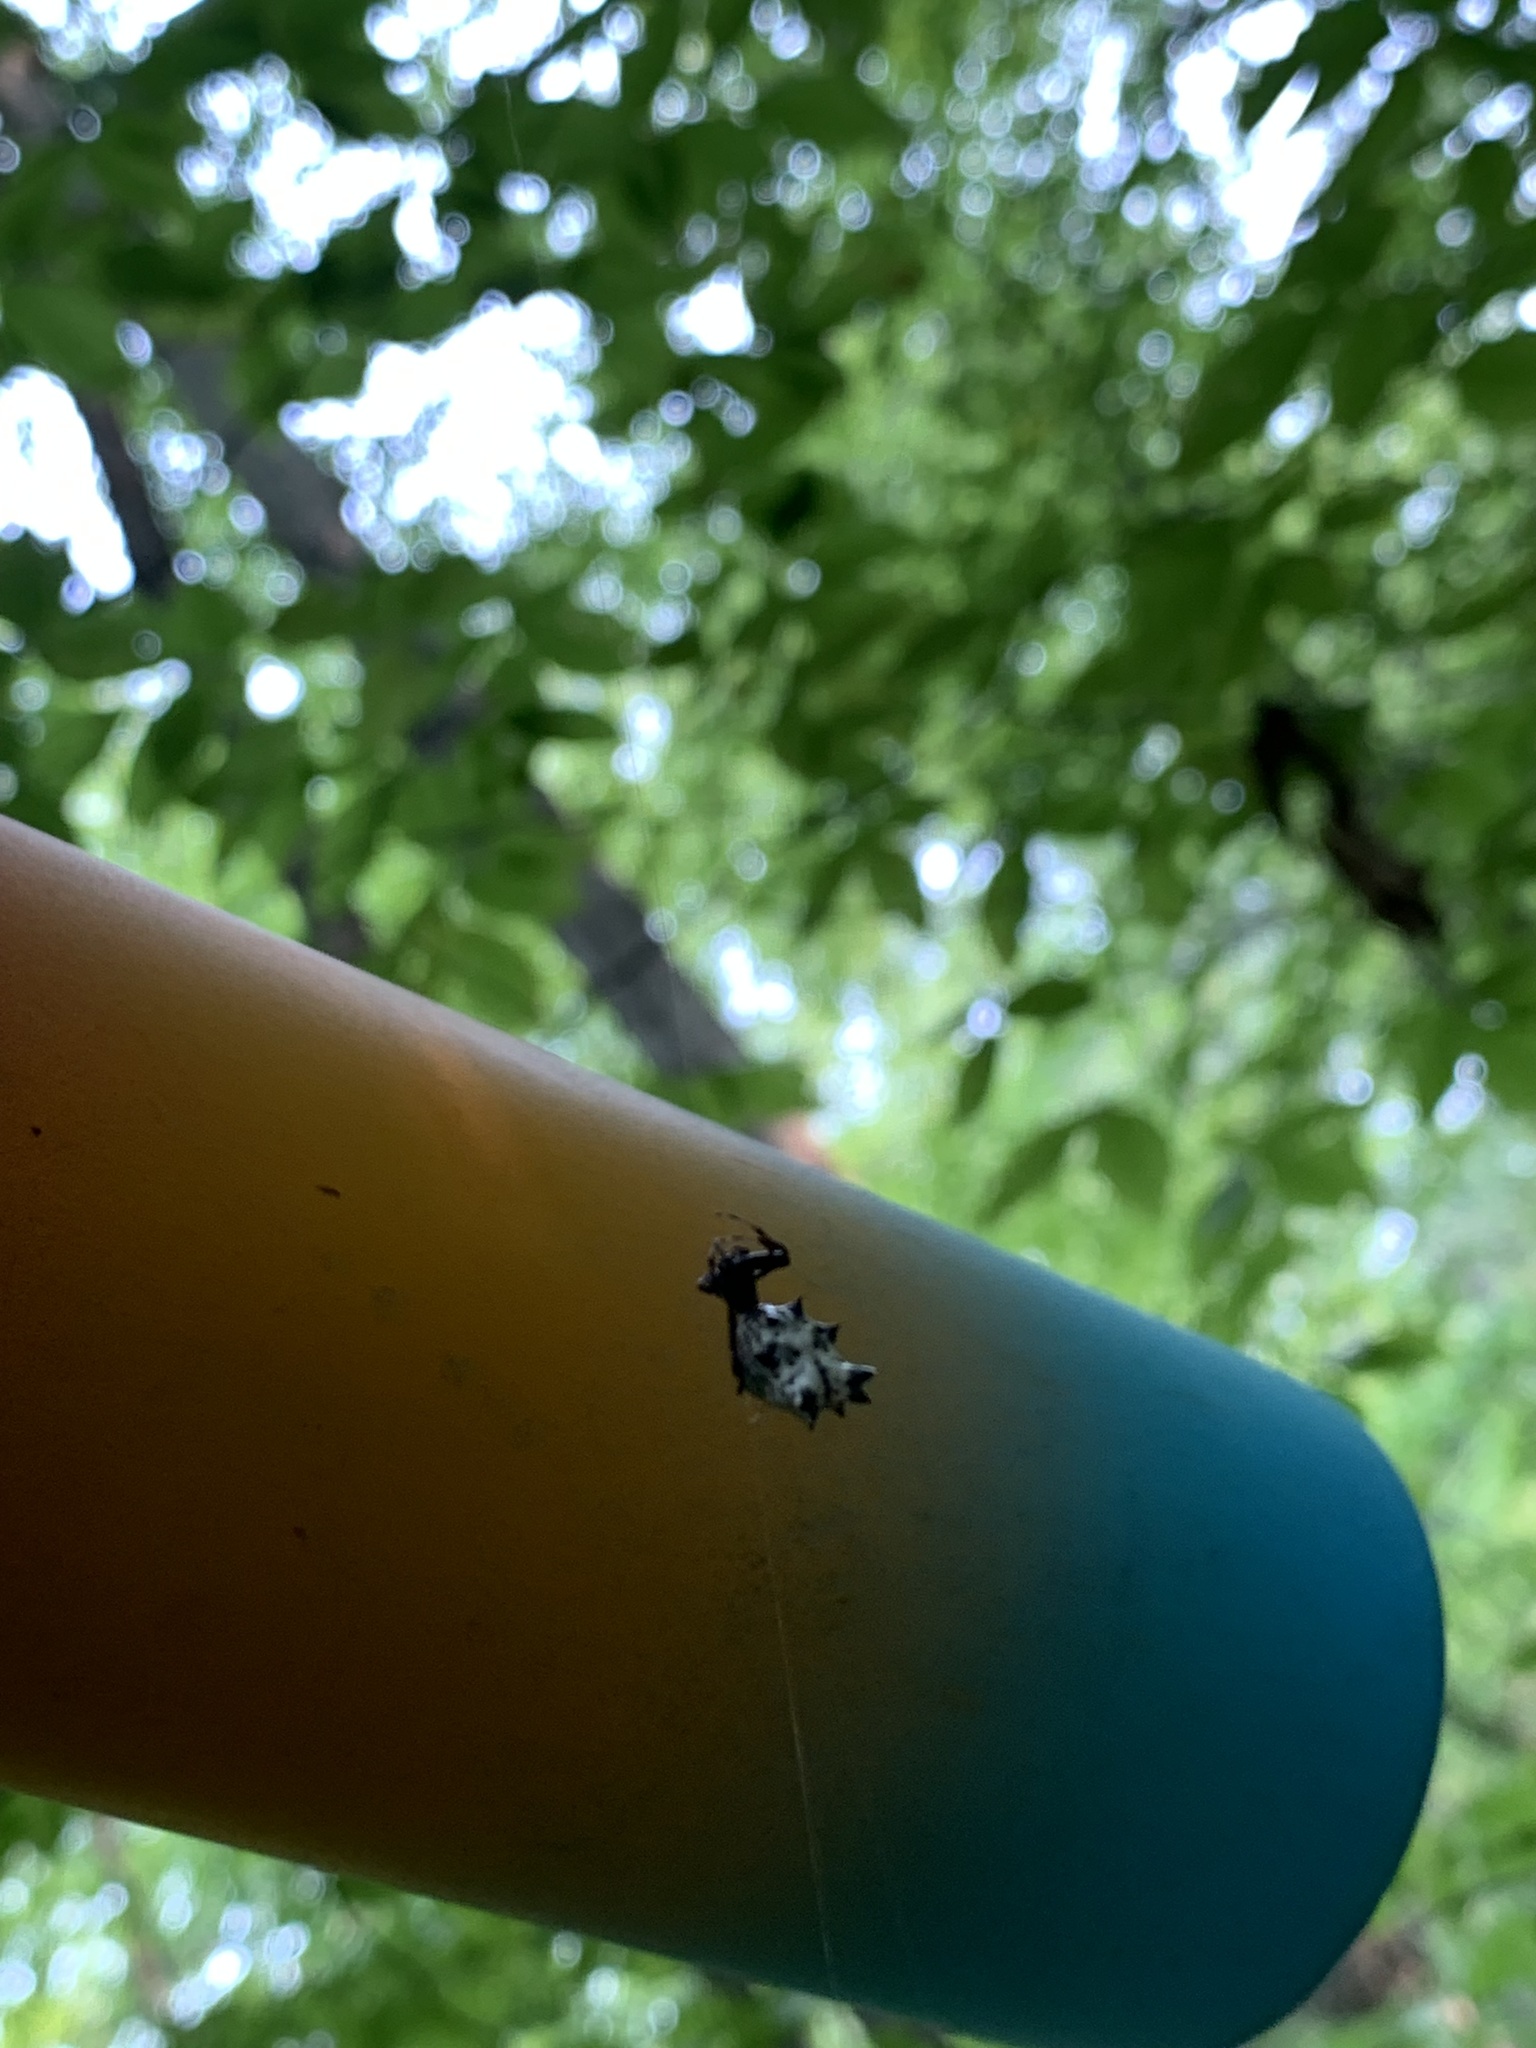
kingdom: Animalia
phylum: Arthropoda
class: Arachnida
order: Araneae
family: Araneidae
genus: Micrathena
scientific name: Micrathena gracilis
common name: Orb weavers
